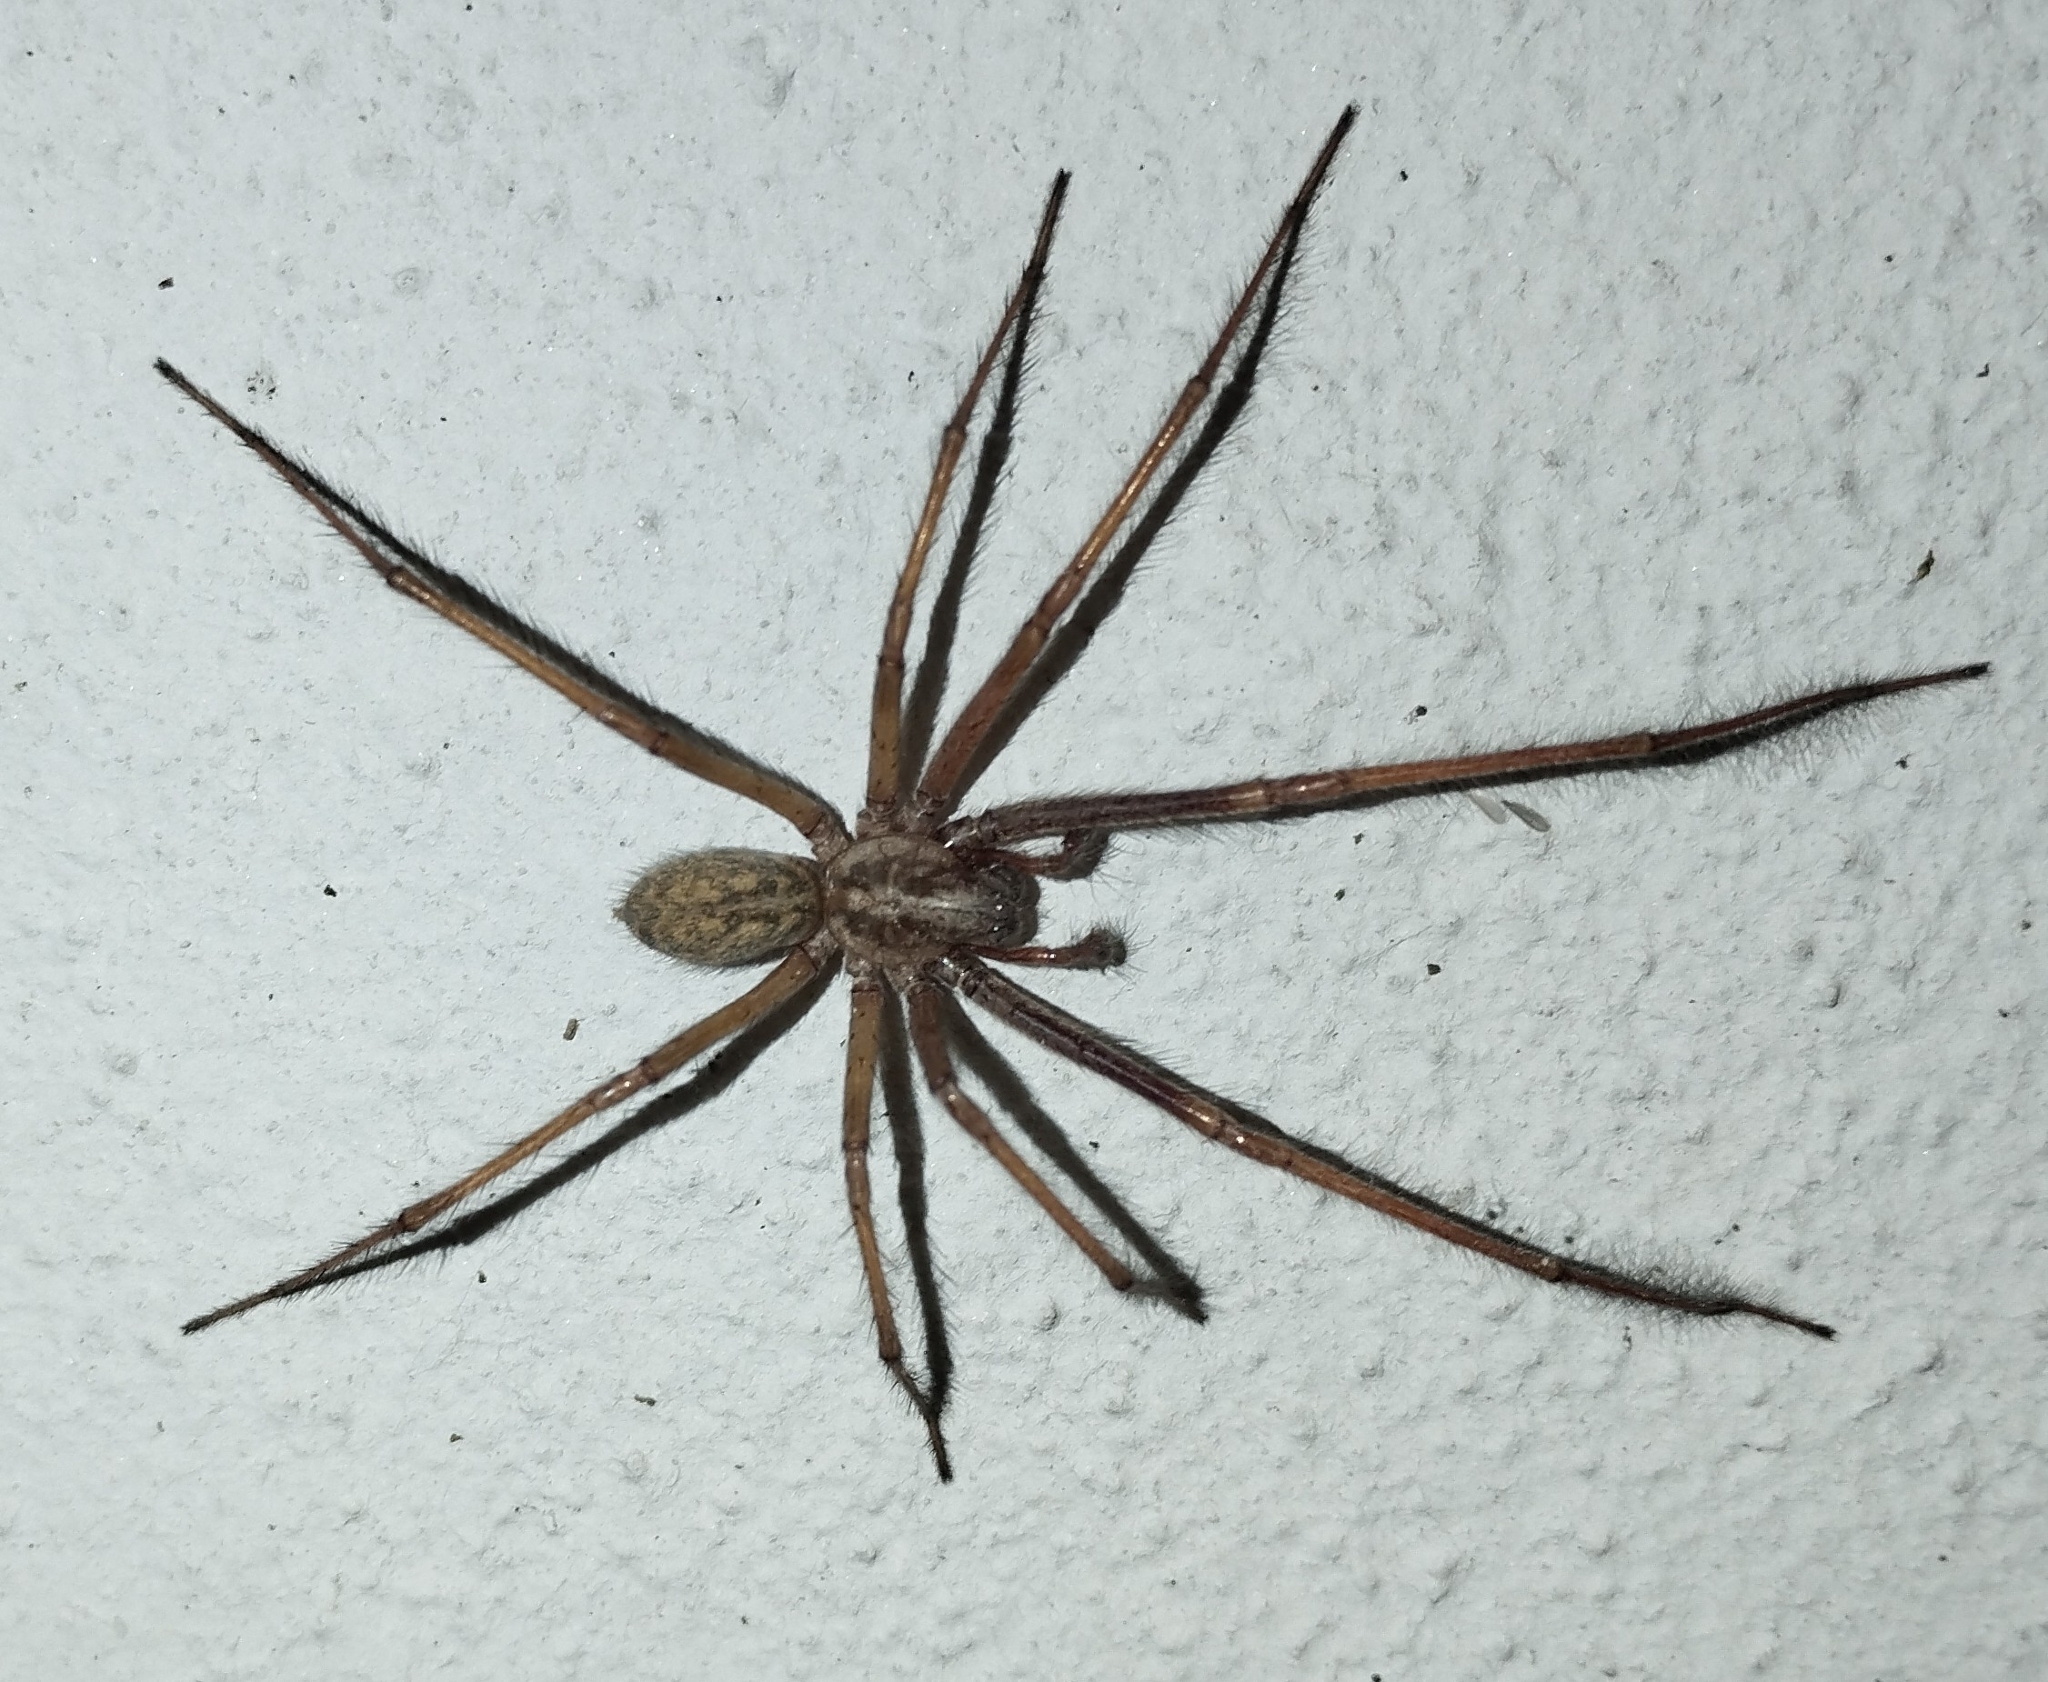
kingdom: Animalia
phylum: Arthropoda
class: Arachnida
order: Araneae
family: Agelenidae
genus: Eratigena
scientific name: Eratigena atrica
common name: Giant house spider
